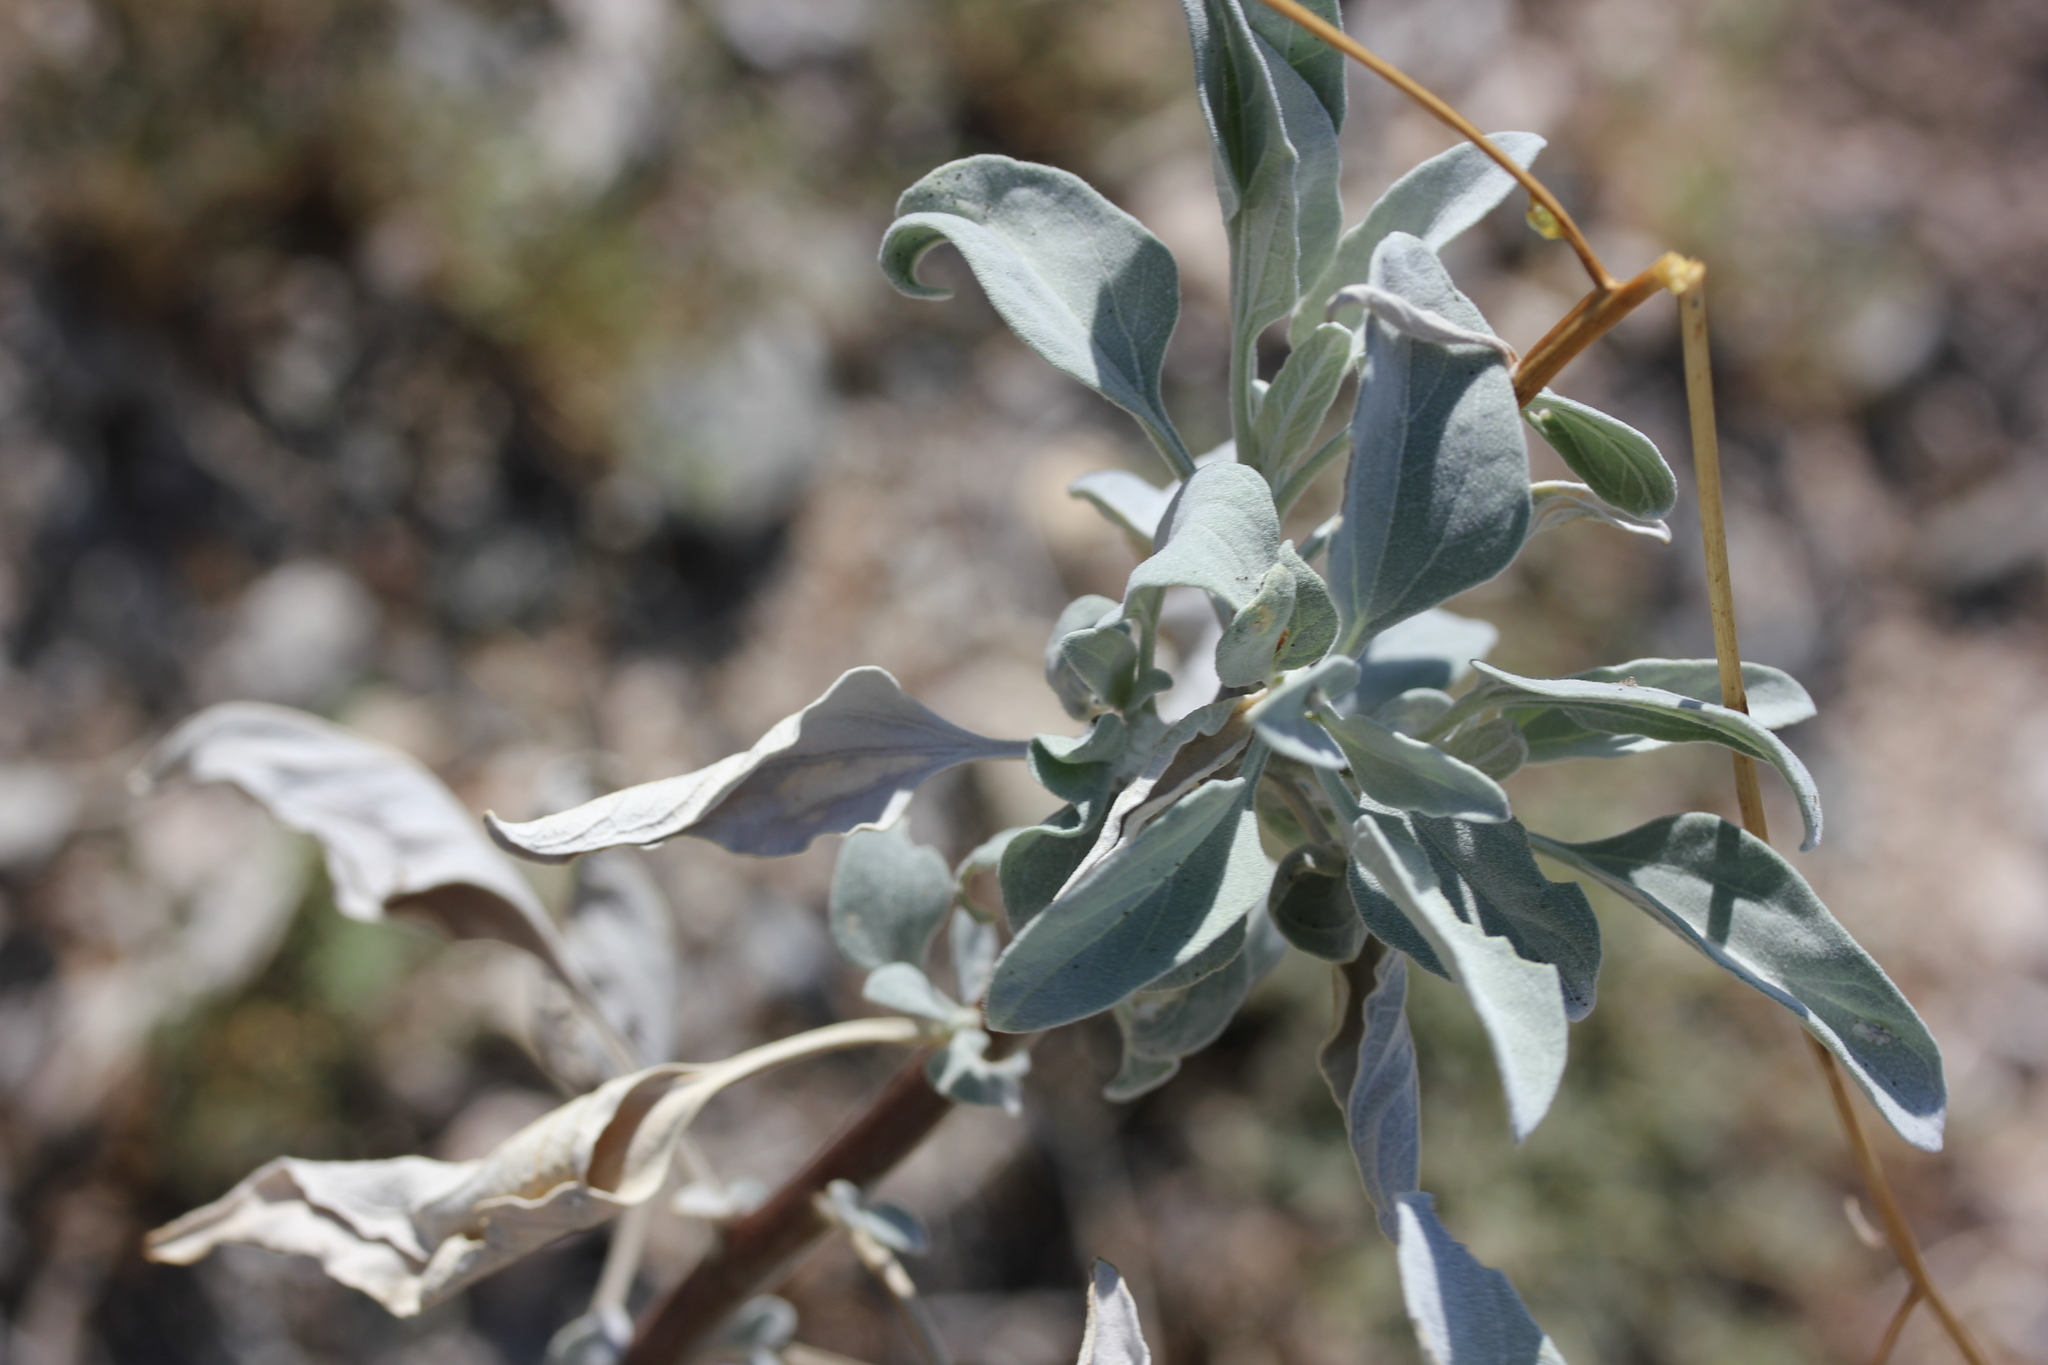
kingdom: Plantae
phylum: Tracheophyta
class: Magnoliopsida
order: Asterales
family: Asteraceae
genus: Encelia
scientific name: Encelia farinosa
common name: Brittlebush
